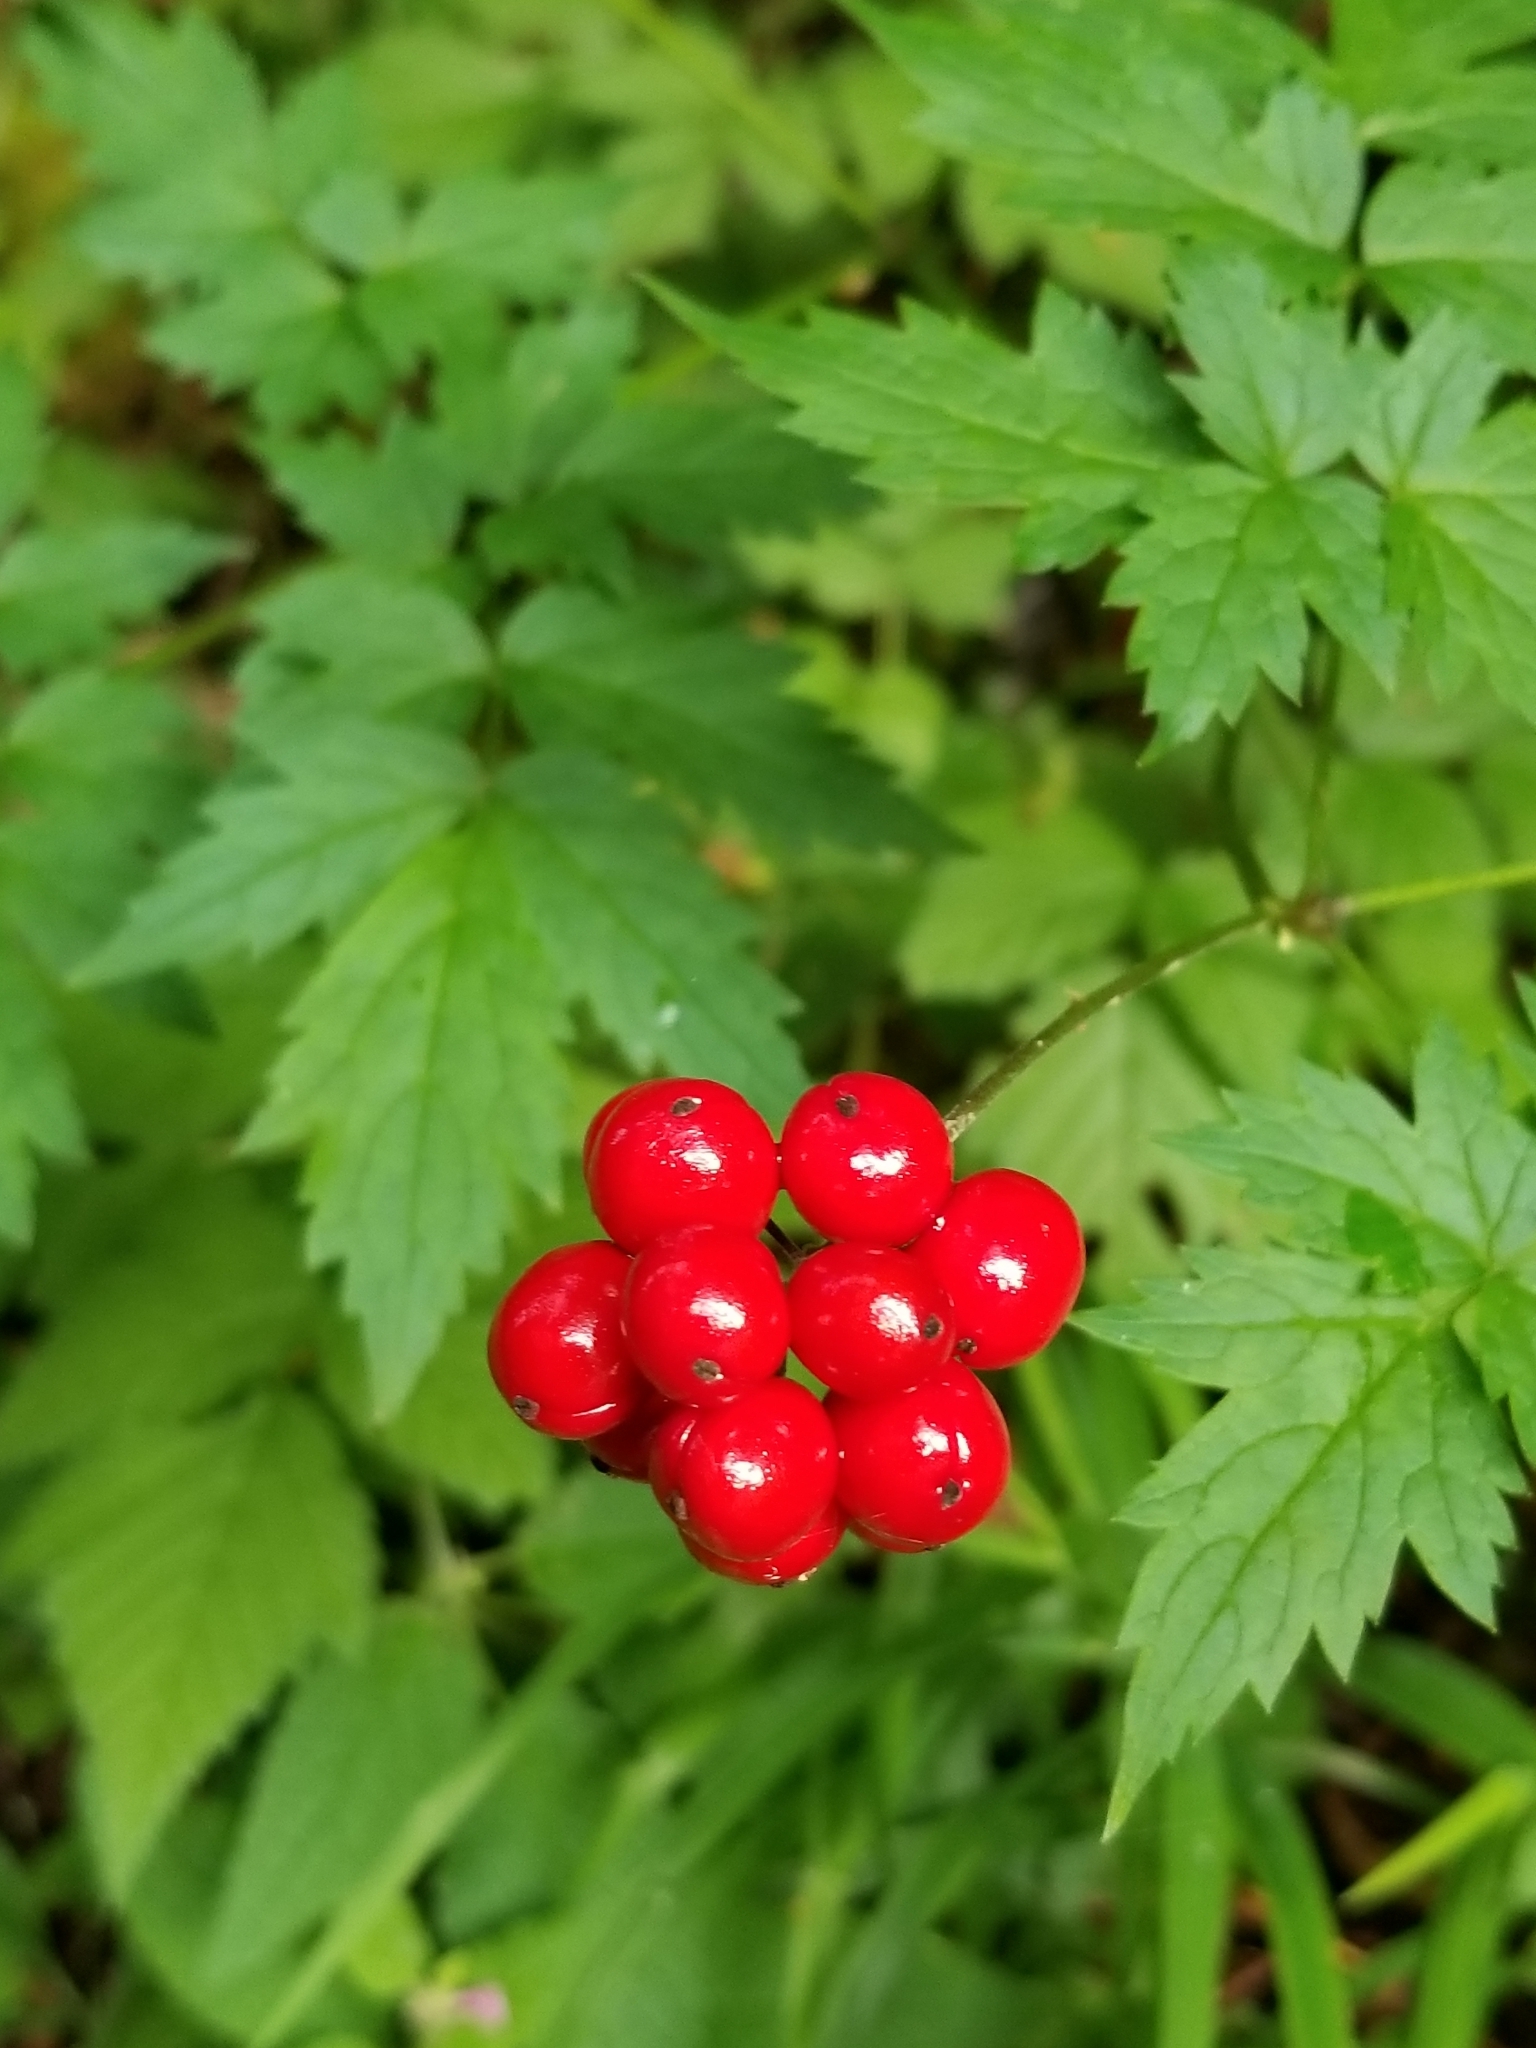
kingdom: Plantae
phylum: Tracheophyta
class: Magnoliopsida
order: Ranunculales
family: Ranunculaceae
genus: Actaea
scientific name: Actaea rubra
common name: Red baneberry
